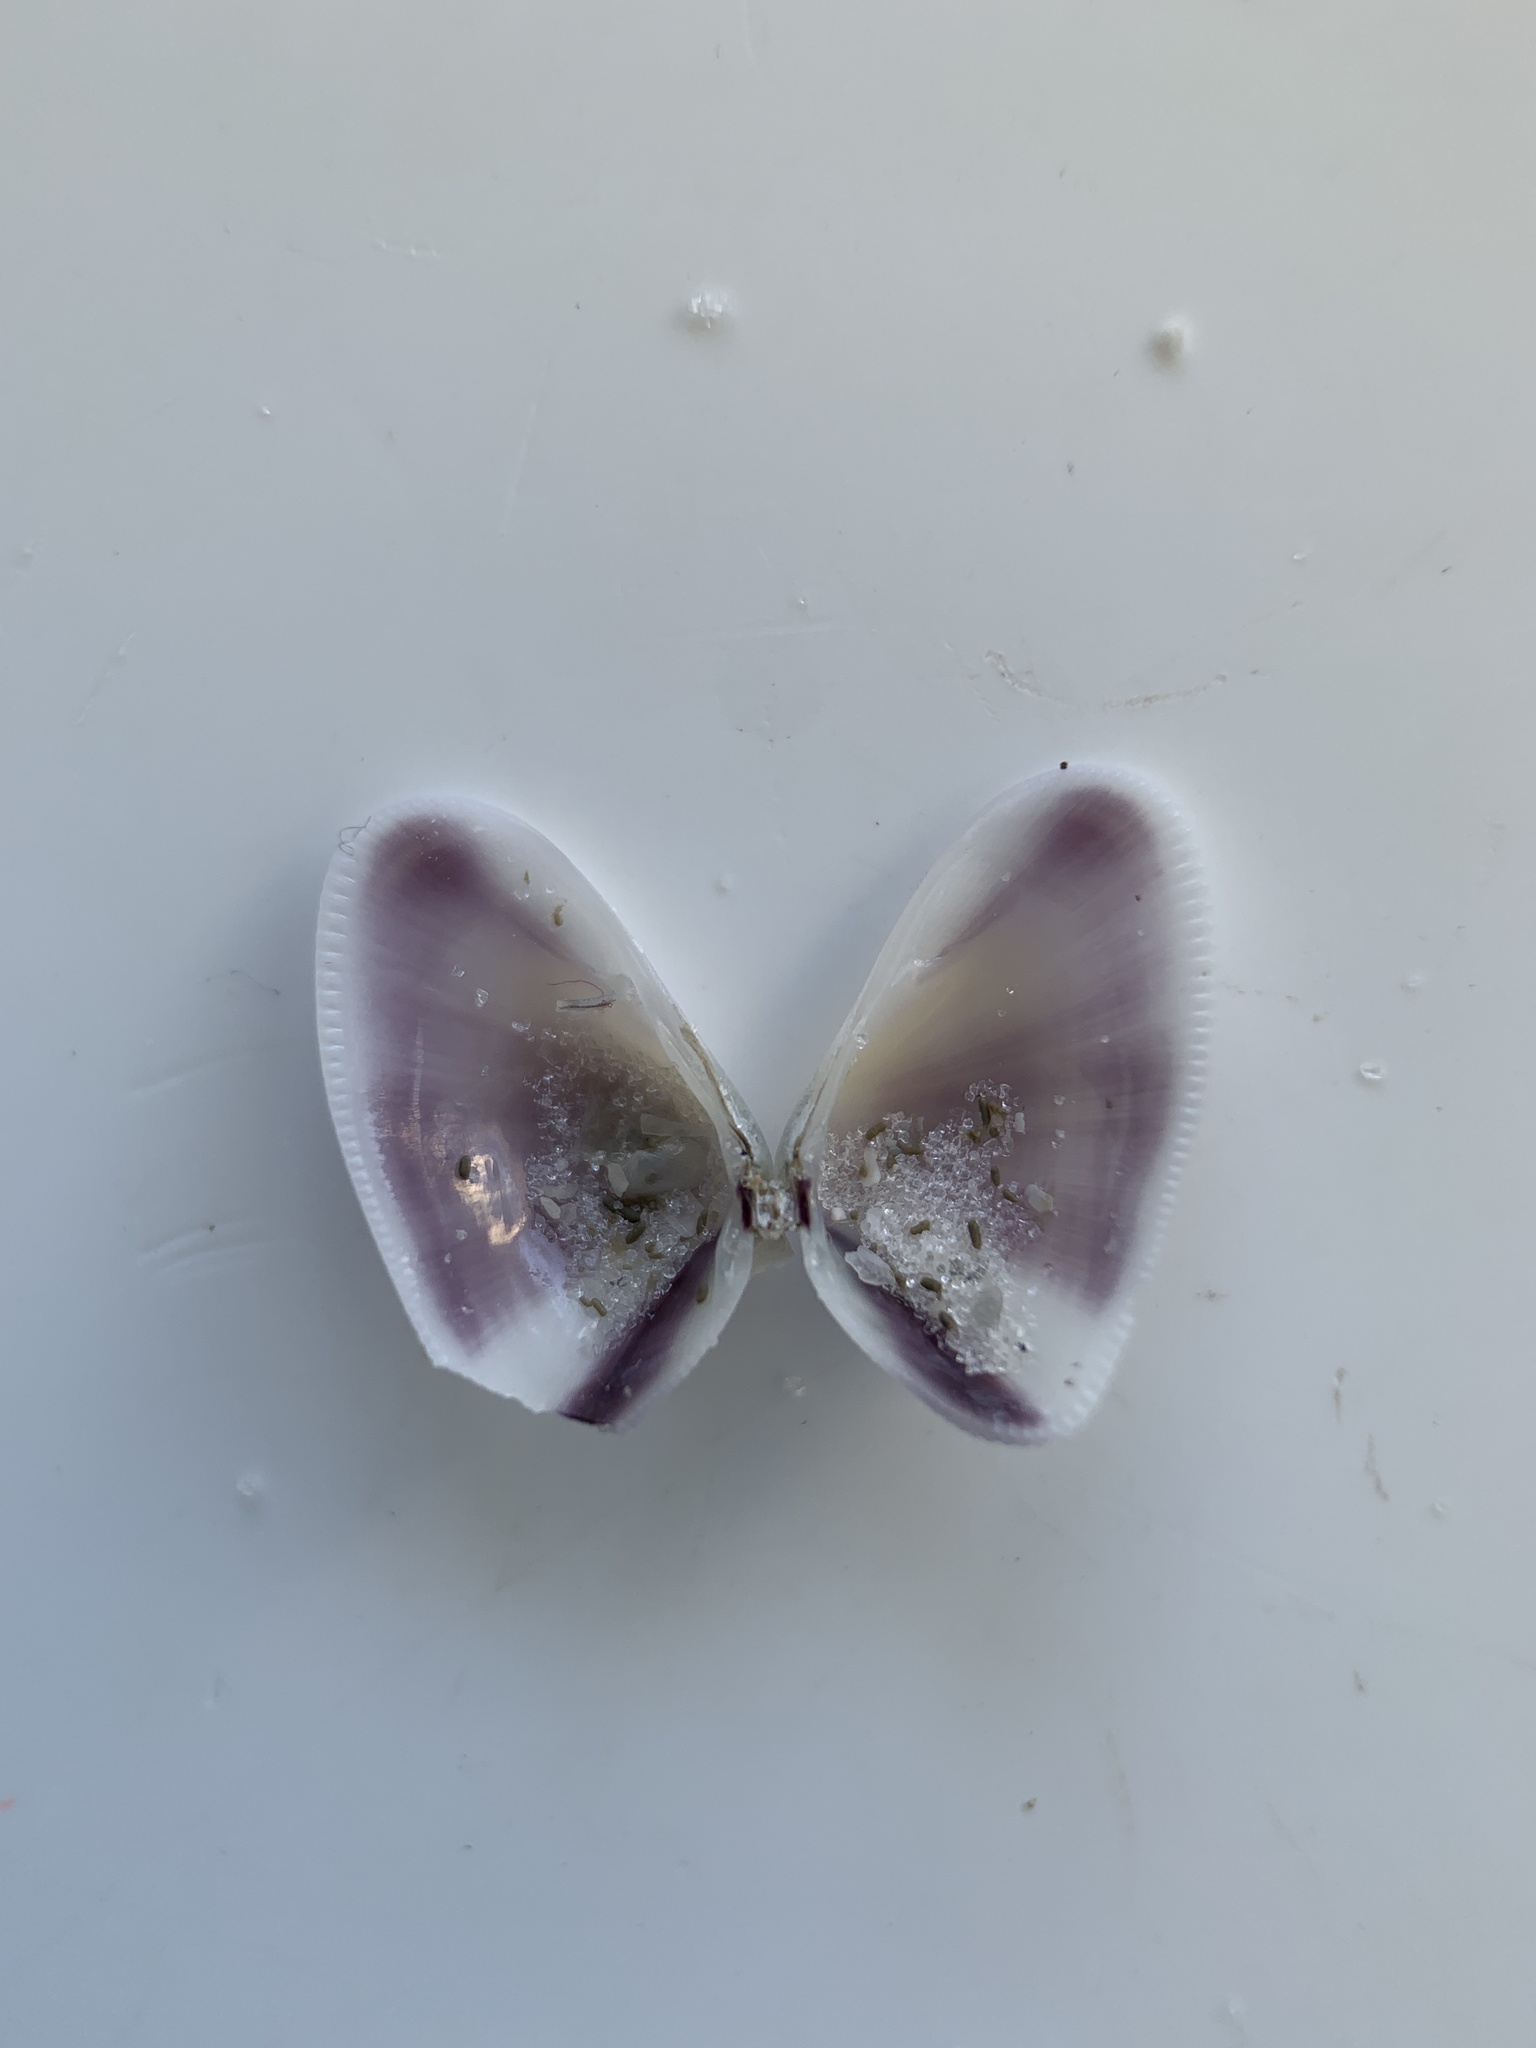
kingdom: Animalia
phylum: Mollusca
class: Bivalvia
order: Cardiida
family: Donacidae
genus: Donax
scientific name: Donax variabilis
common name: Butterfly shell
